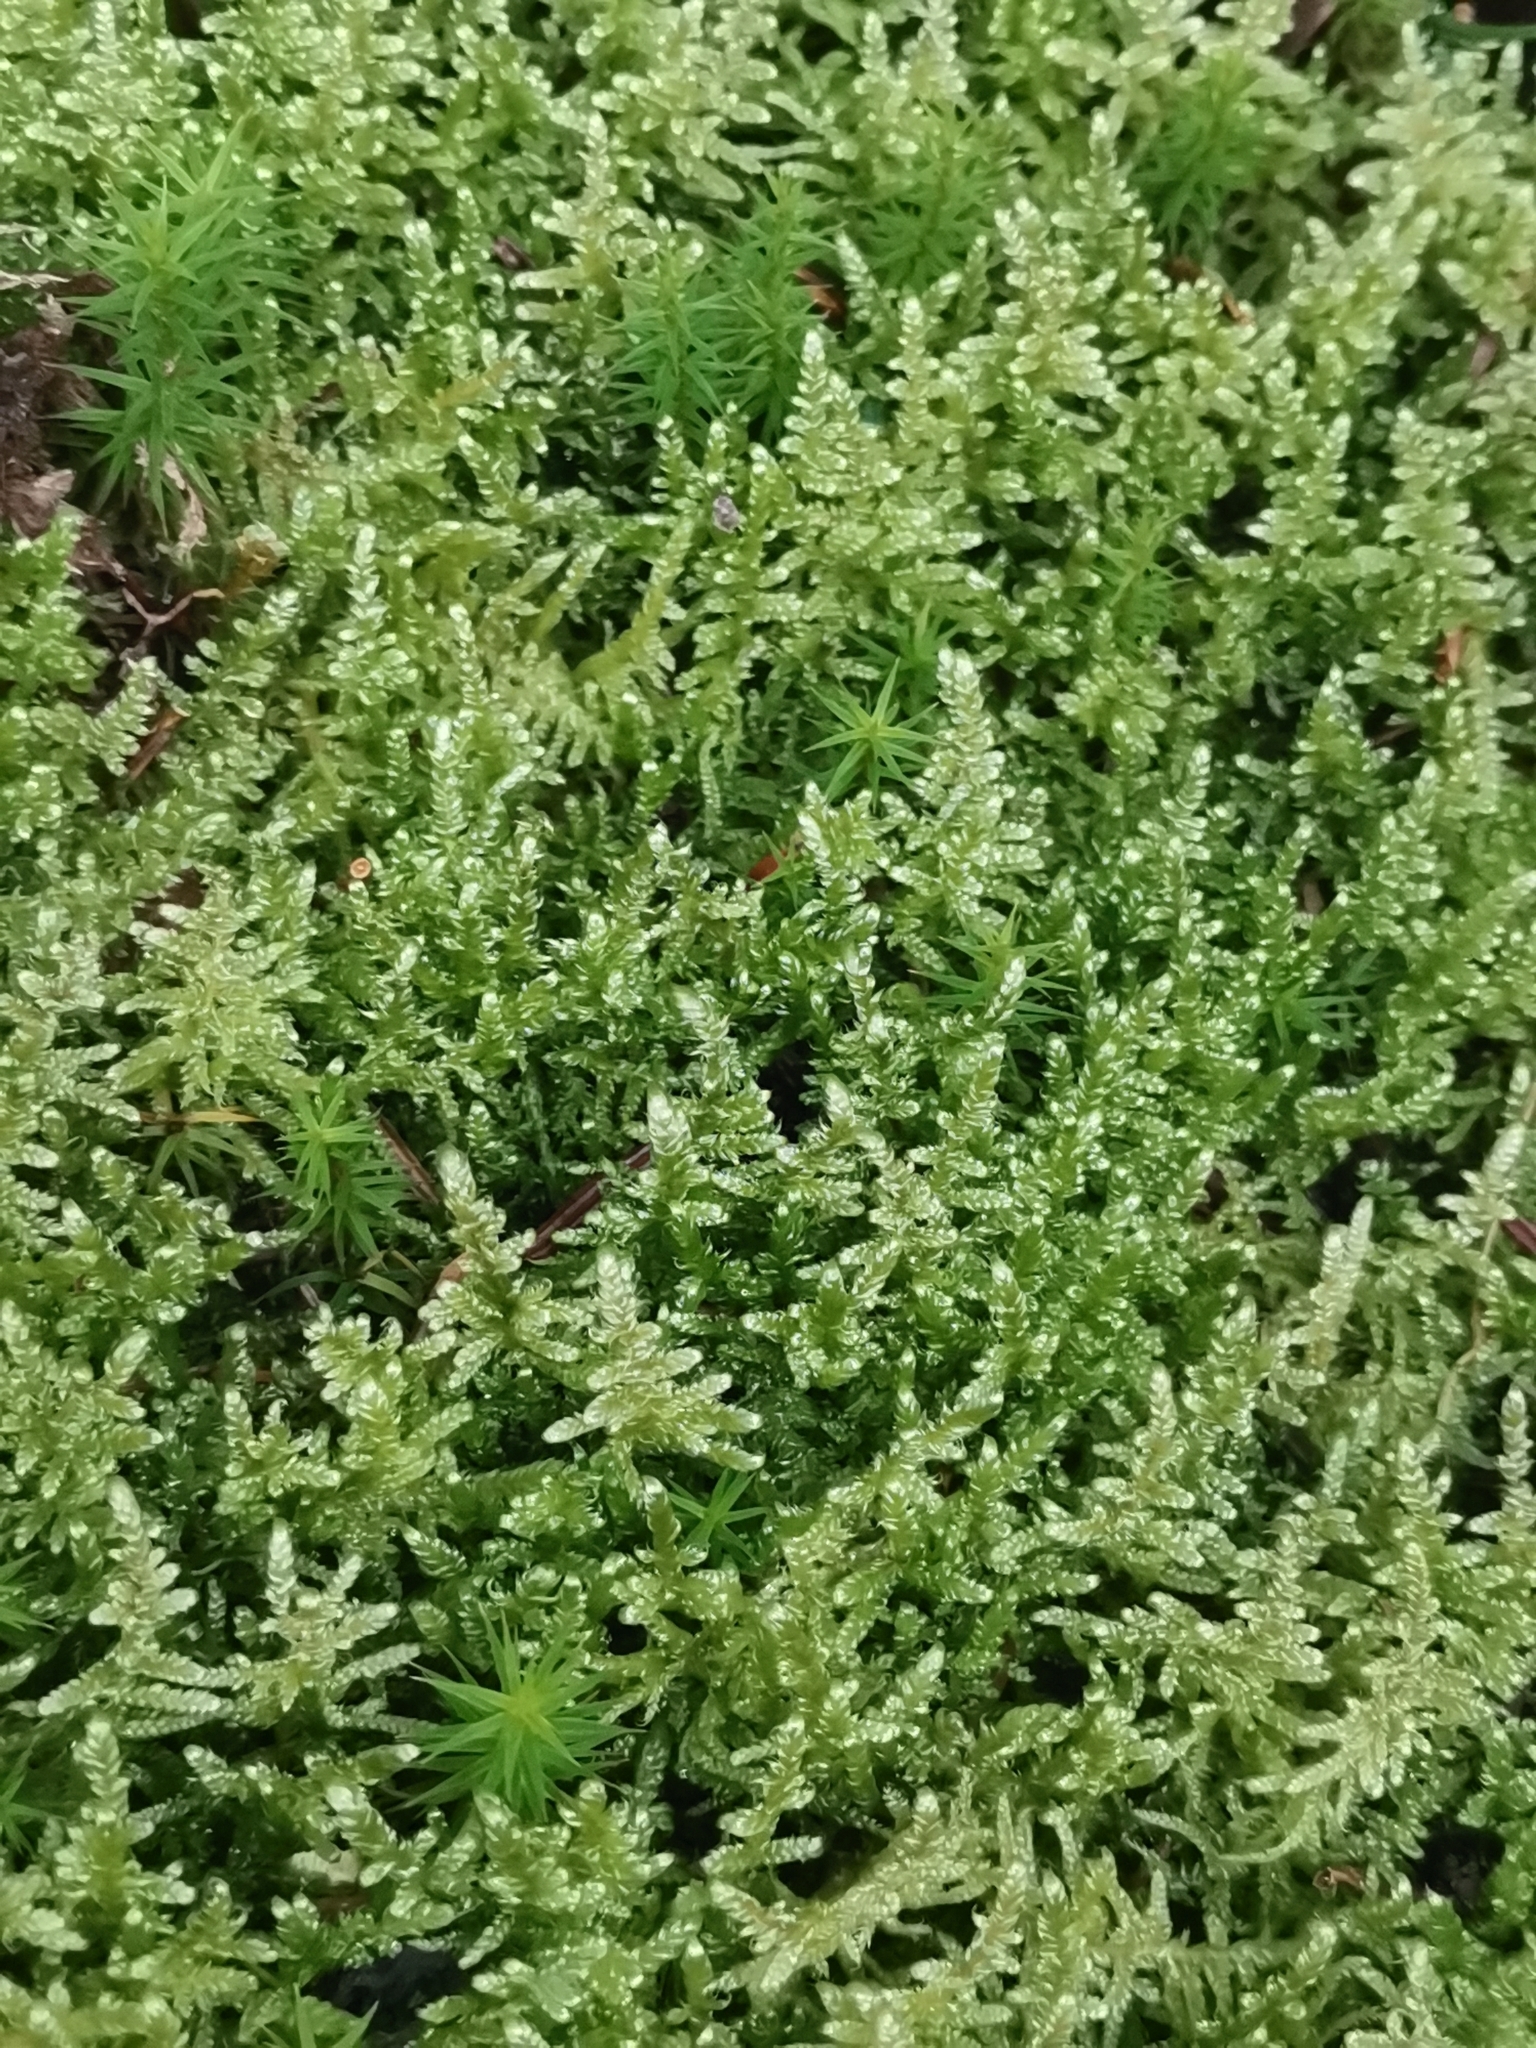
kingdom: Plantae
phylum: Bryophyta
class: Bryopsida
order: Hypnales
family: Hypnaceae
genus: Hypnum
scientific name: Hypnum jutlandicum
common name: Heath plait-moss
